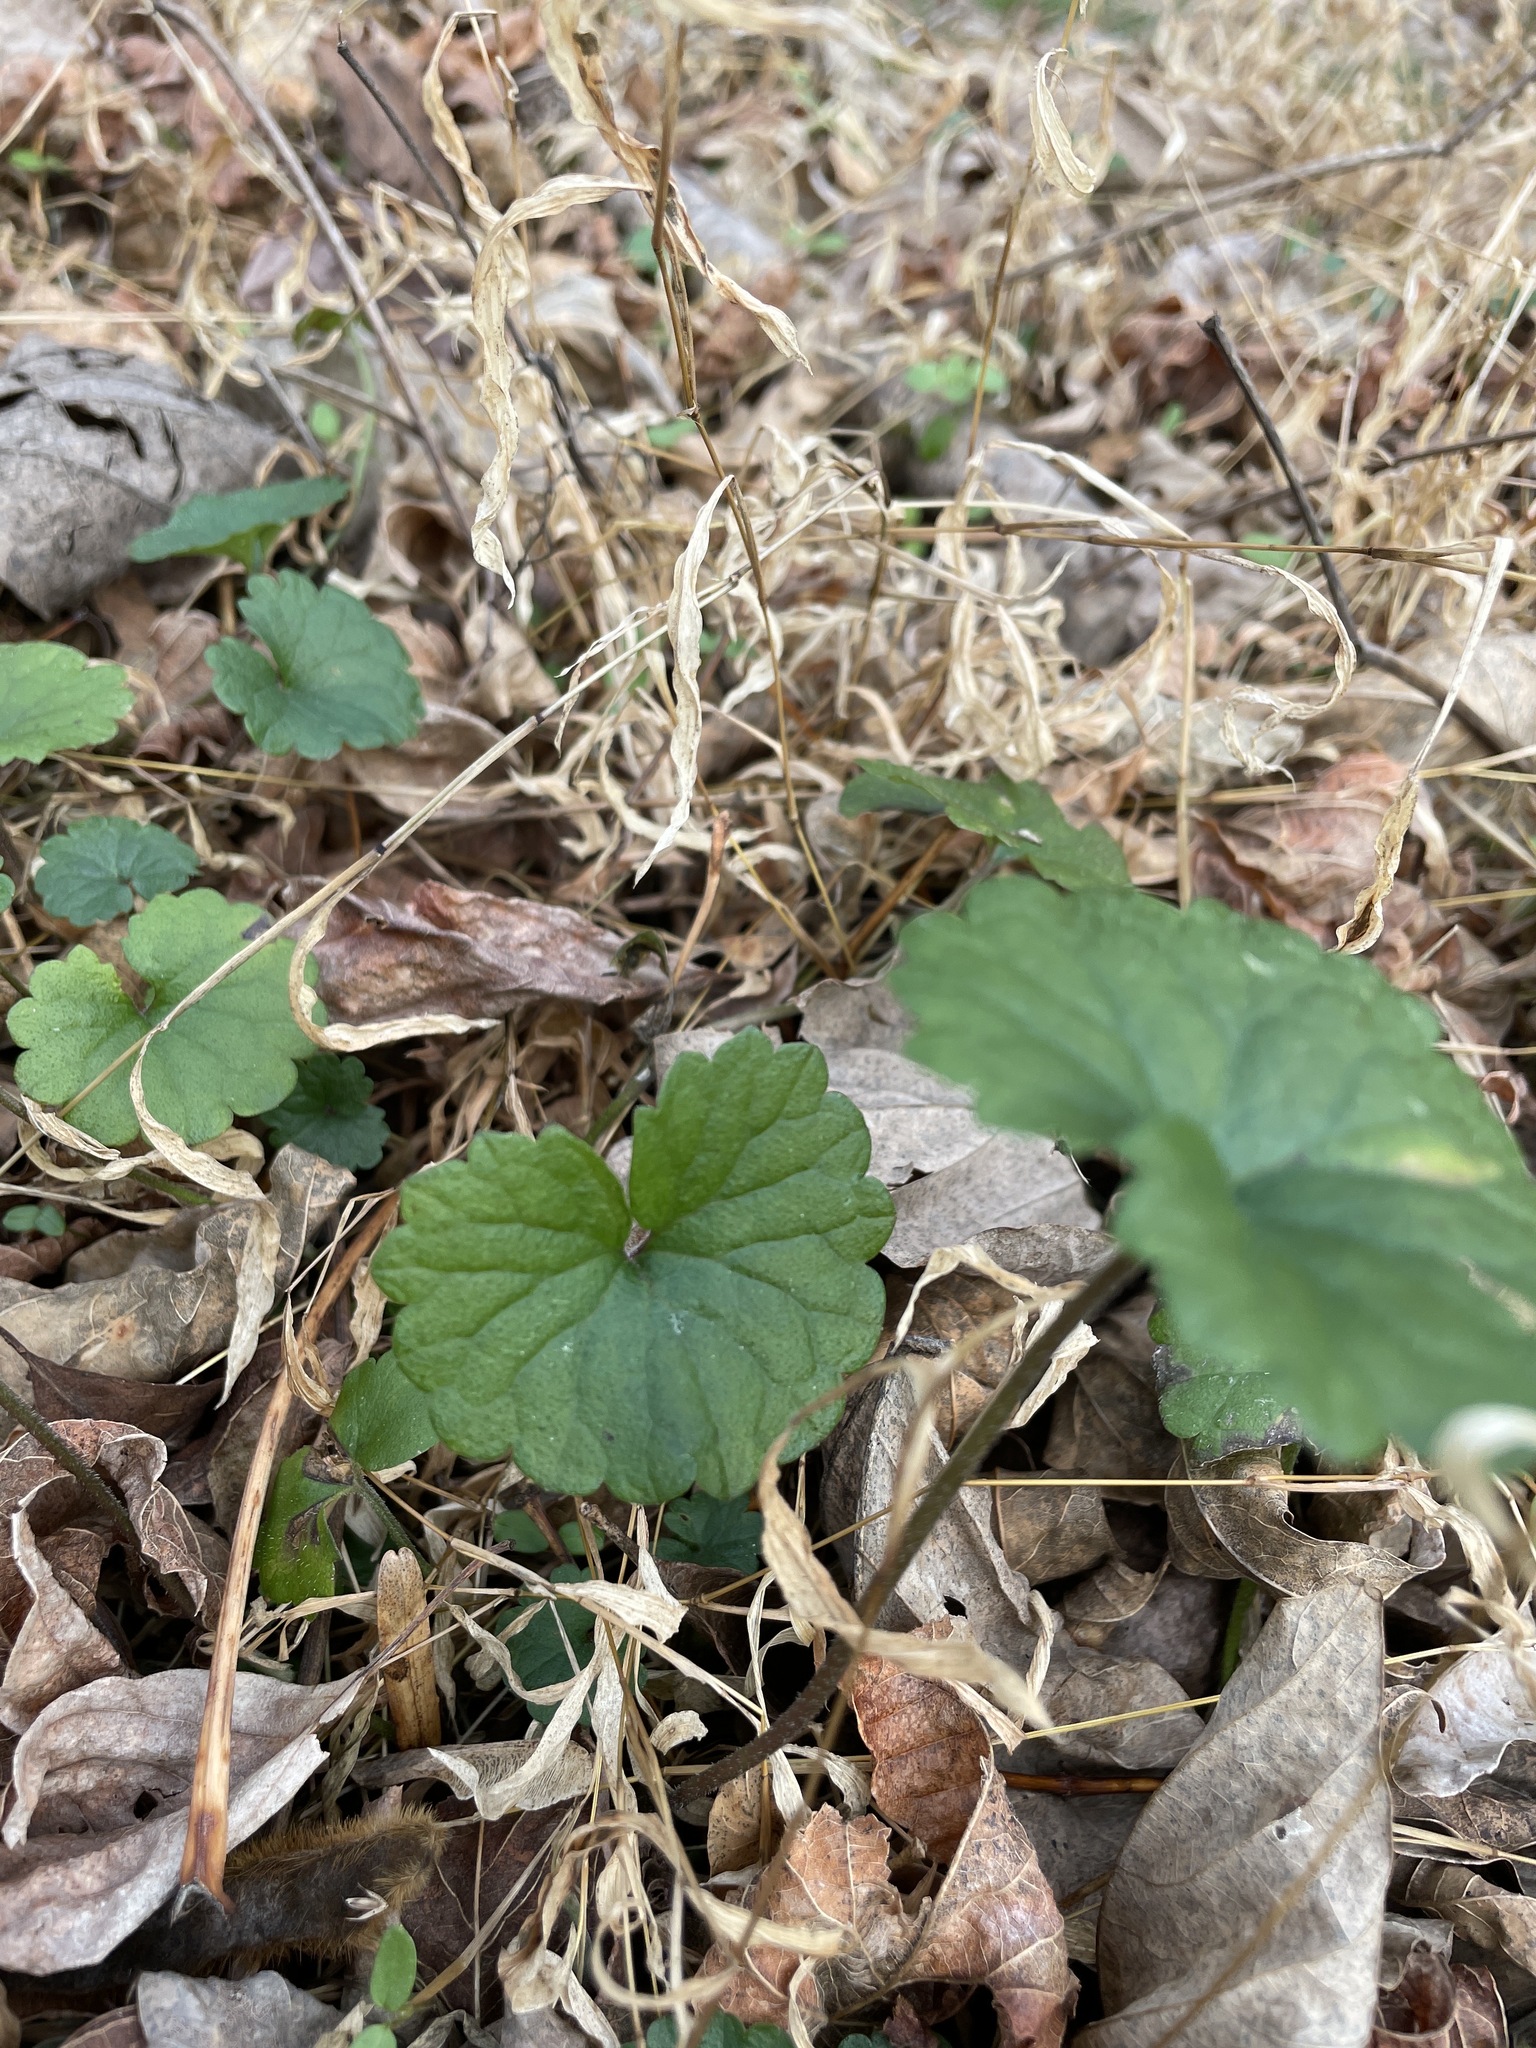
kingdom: Plantae
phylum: Tracheophyta
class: Magnoliopsida
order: Lamiales
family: Lamiaceae
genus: Glechoma
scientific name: Glechoma hederacea
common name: Ground ivy
